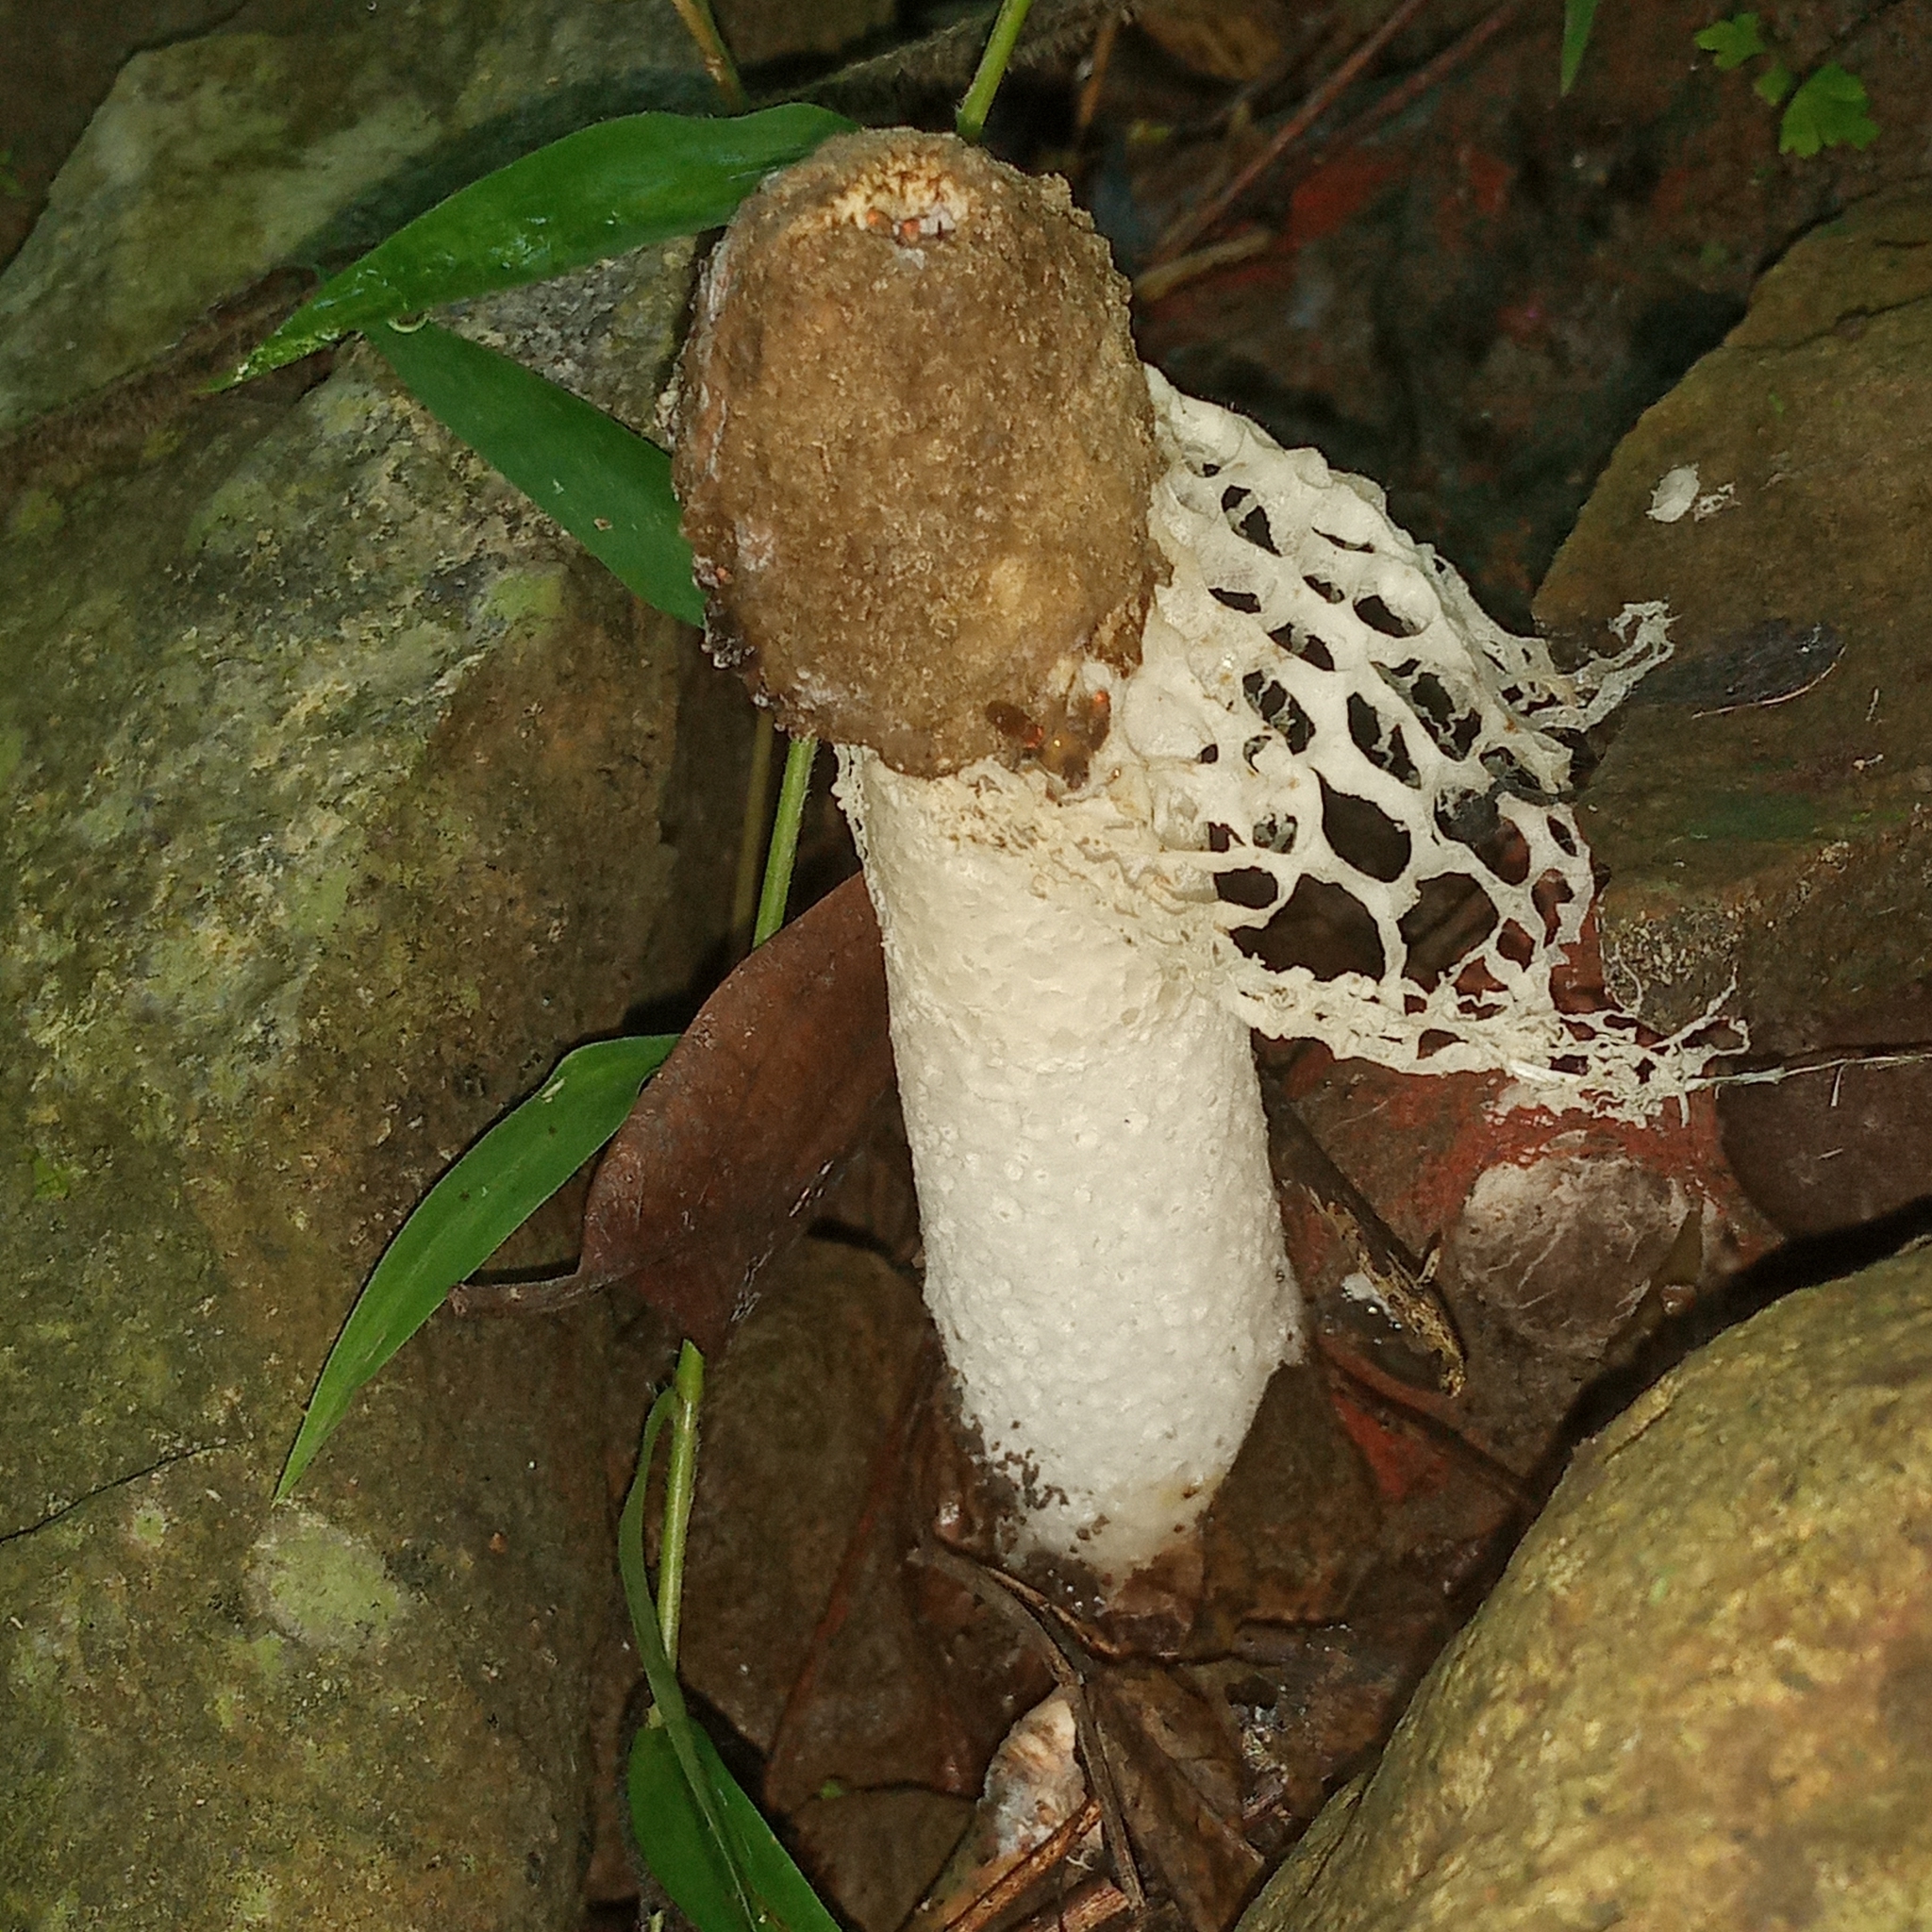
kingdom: Fungi
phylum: Basidiomycota
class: Agaricomycetes
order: Phallales
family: Phallaceae
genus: Phallus
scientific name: Phallus atrovolvatus
